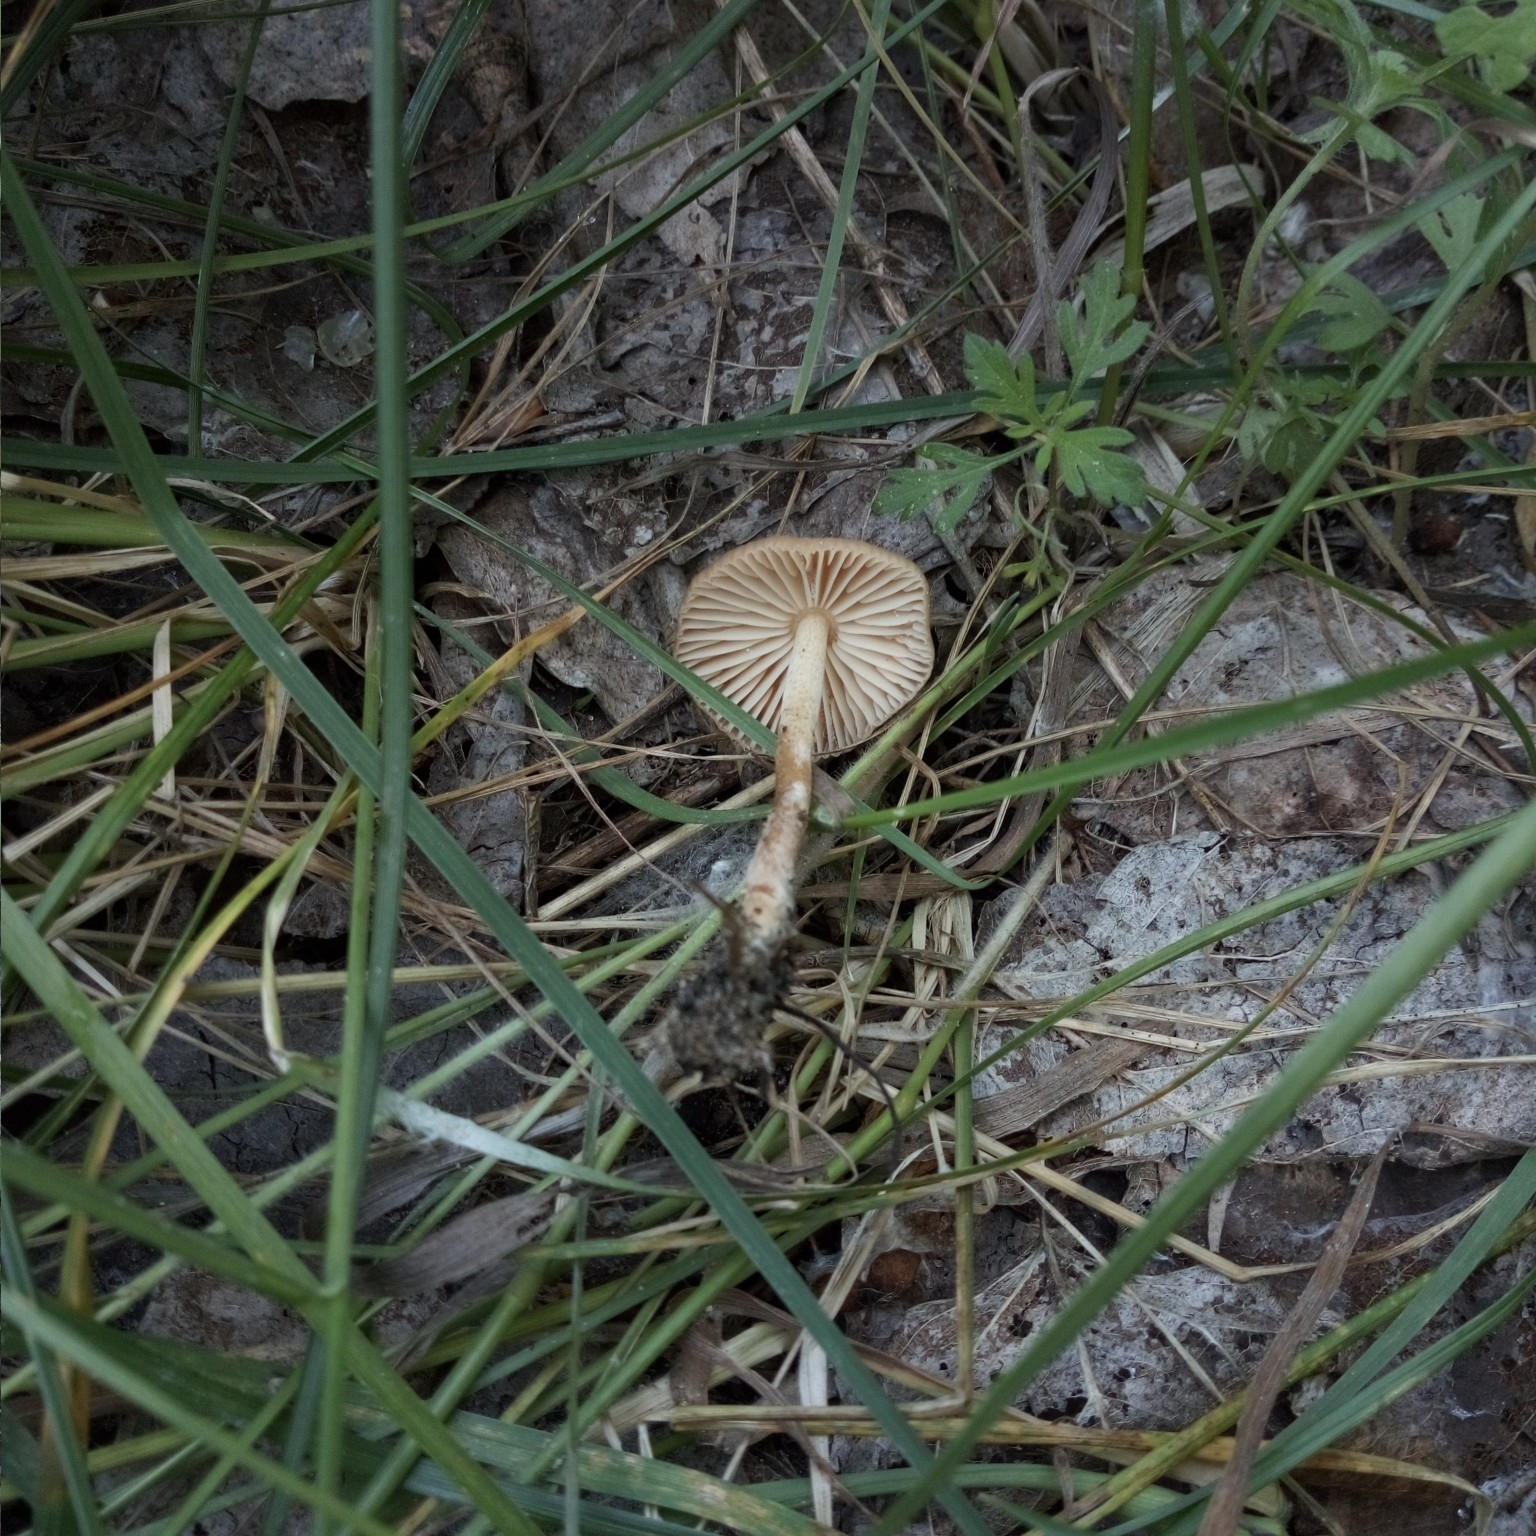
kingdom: Fungi
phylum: Basidiomycota
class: Agaricomycetes
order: Agaricales
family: Marasmiaceae
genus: Marasmius
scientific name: Marasmius oreades
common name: Fairy ring champignon
